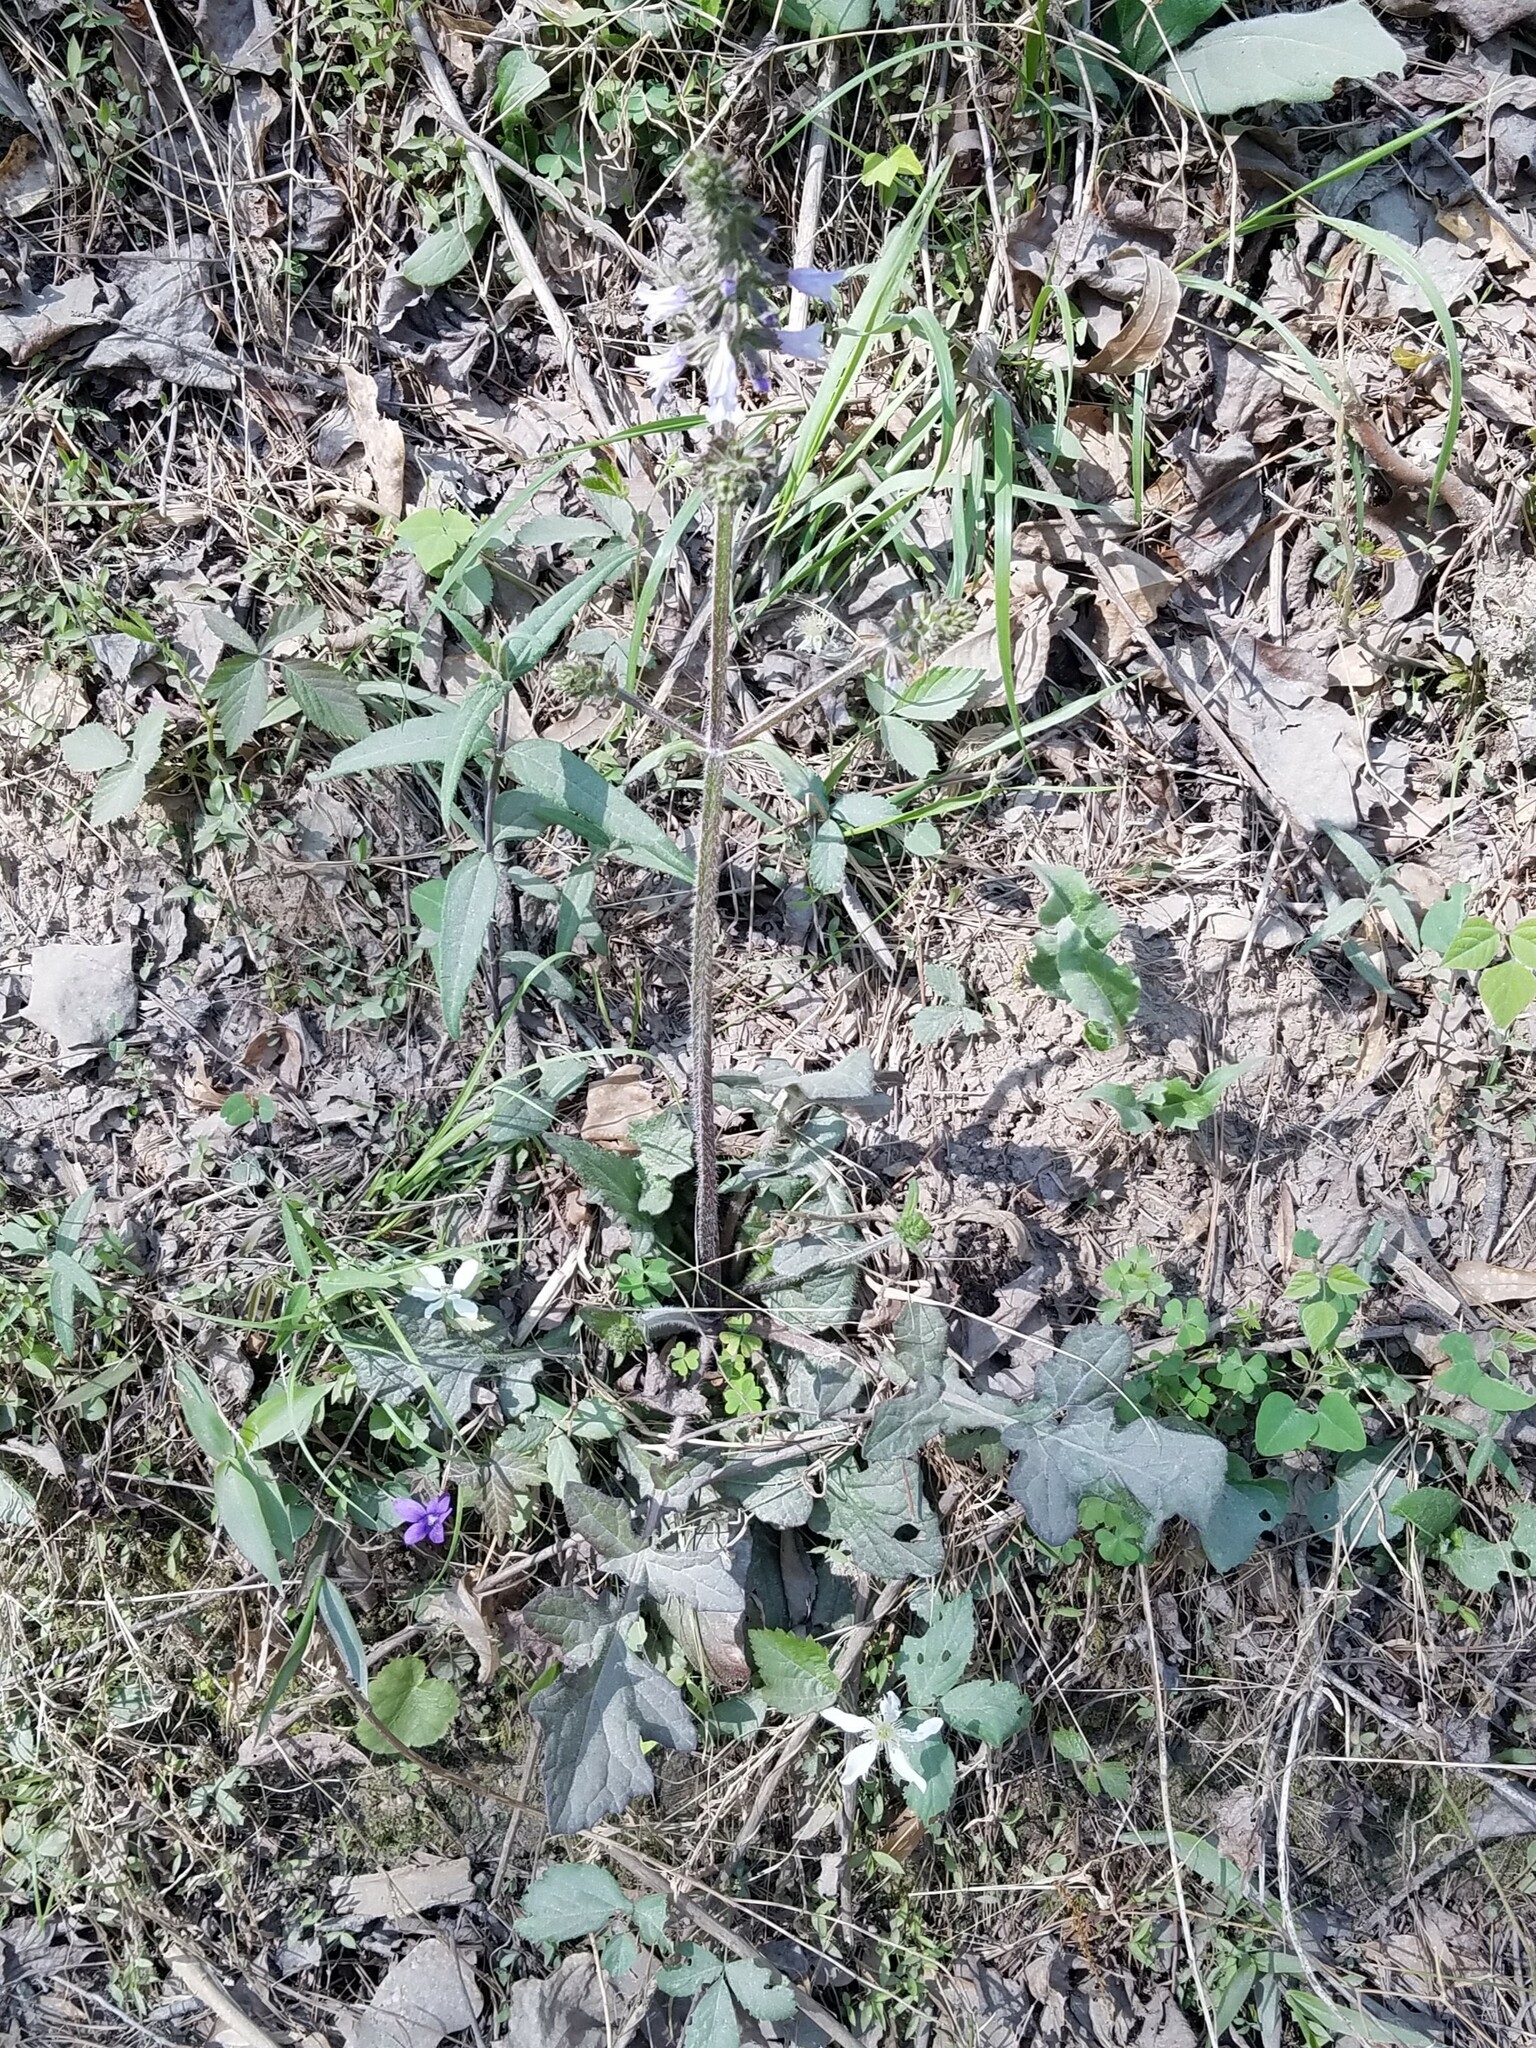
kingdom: Plantae
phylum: Tracheophyta
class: Magnoliopsida
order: Lamiales
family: Lamiaceae
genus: Salvia
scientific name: Salvia lyrata
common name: Cancerweed
